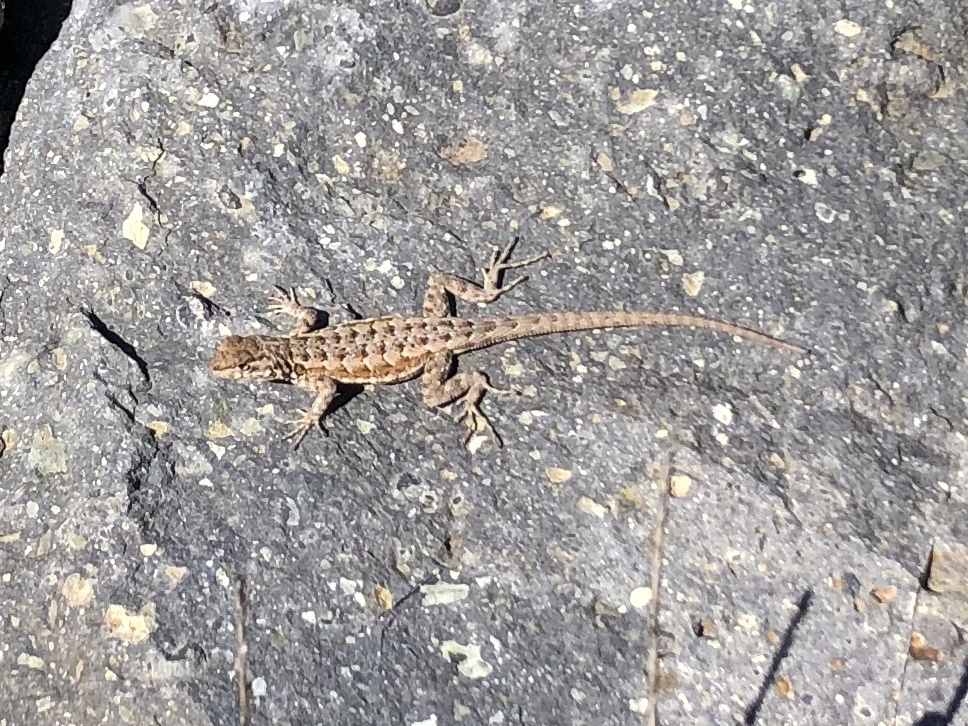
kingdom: Animalia
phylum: Chordata
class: Squamata
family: Phrynosomatidae
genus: Uta
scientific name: Uta stansburiana
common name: Side-blotched lizard
